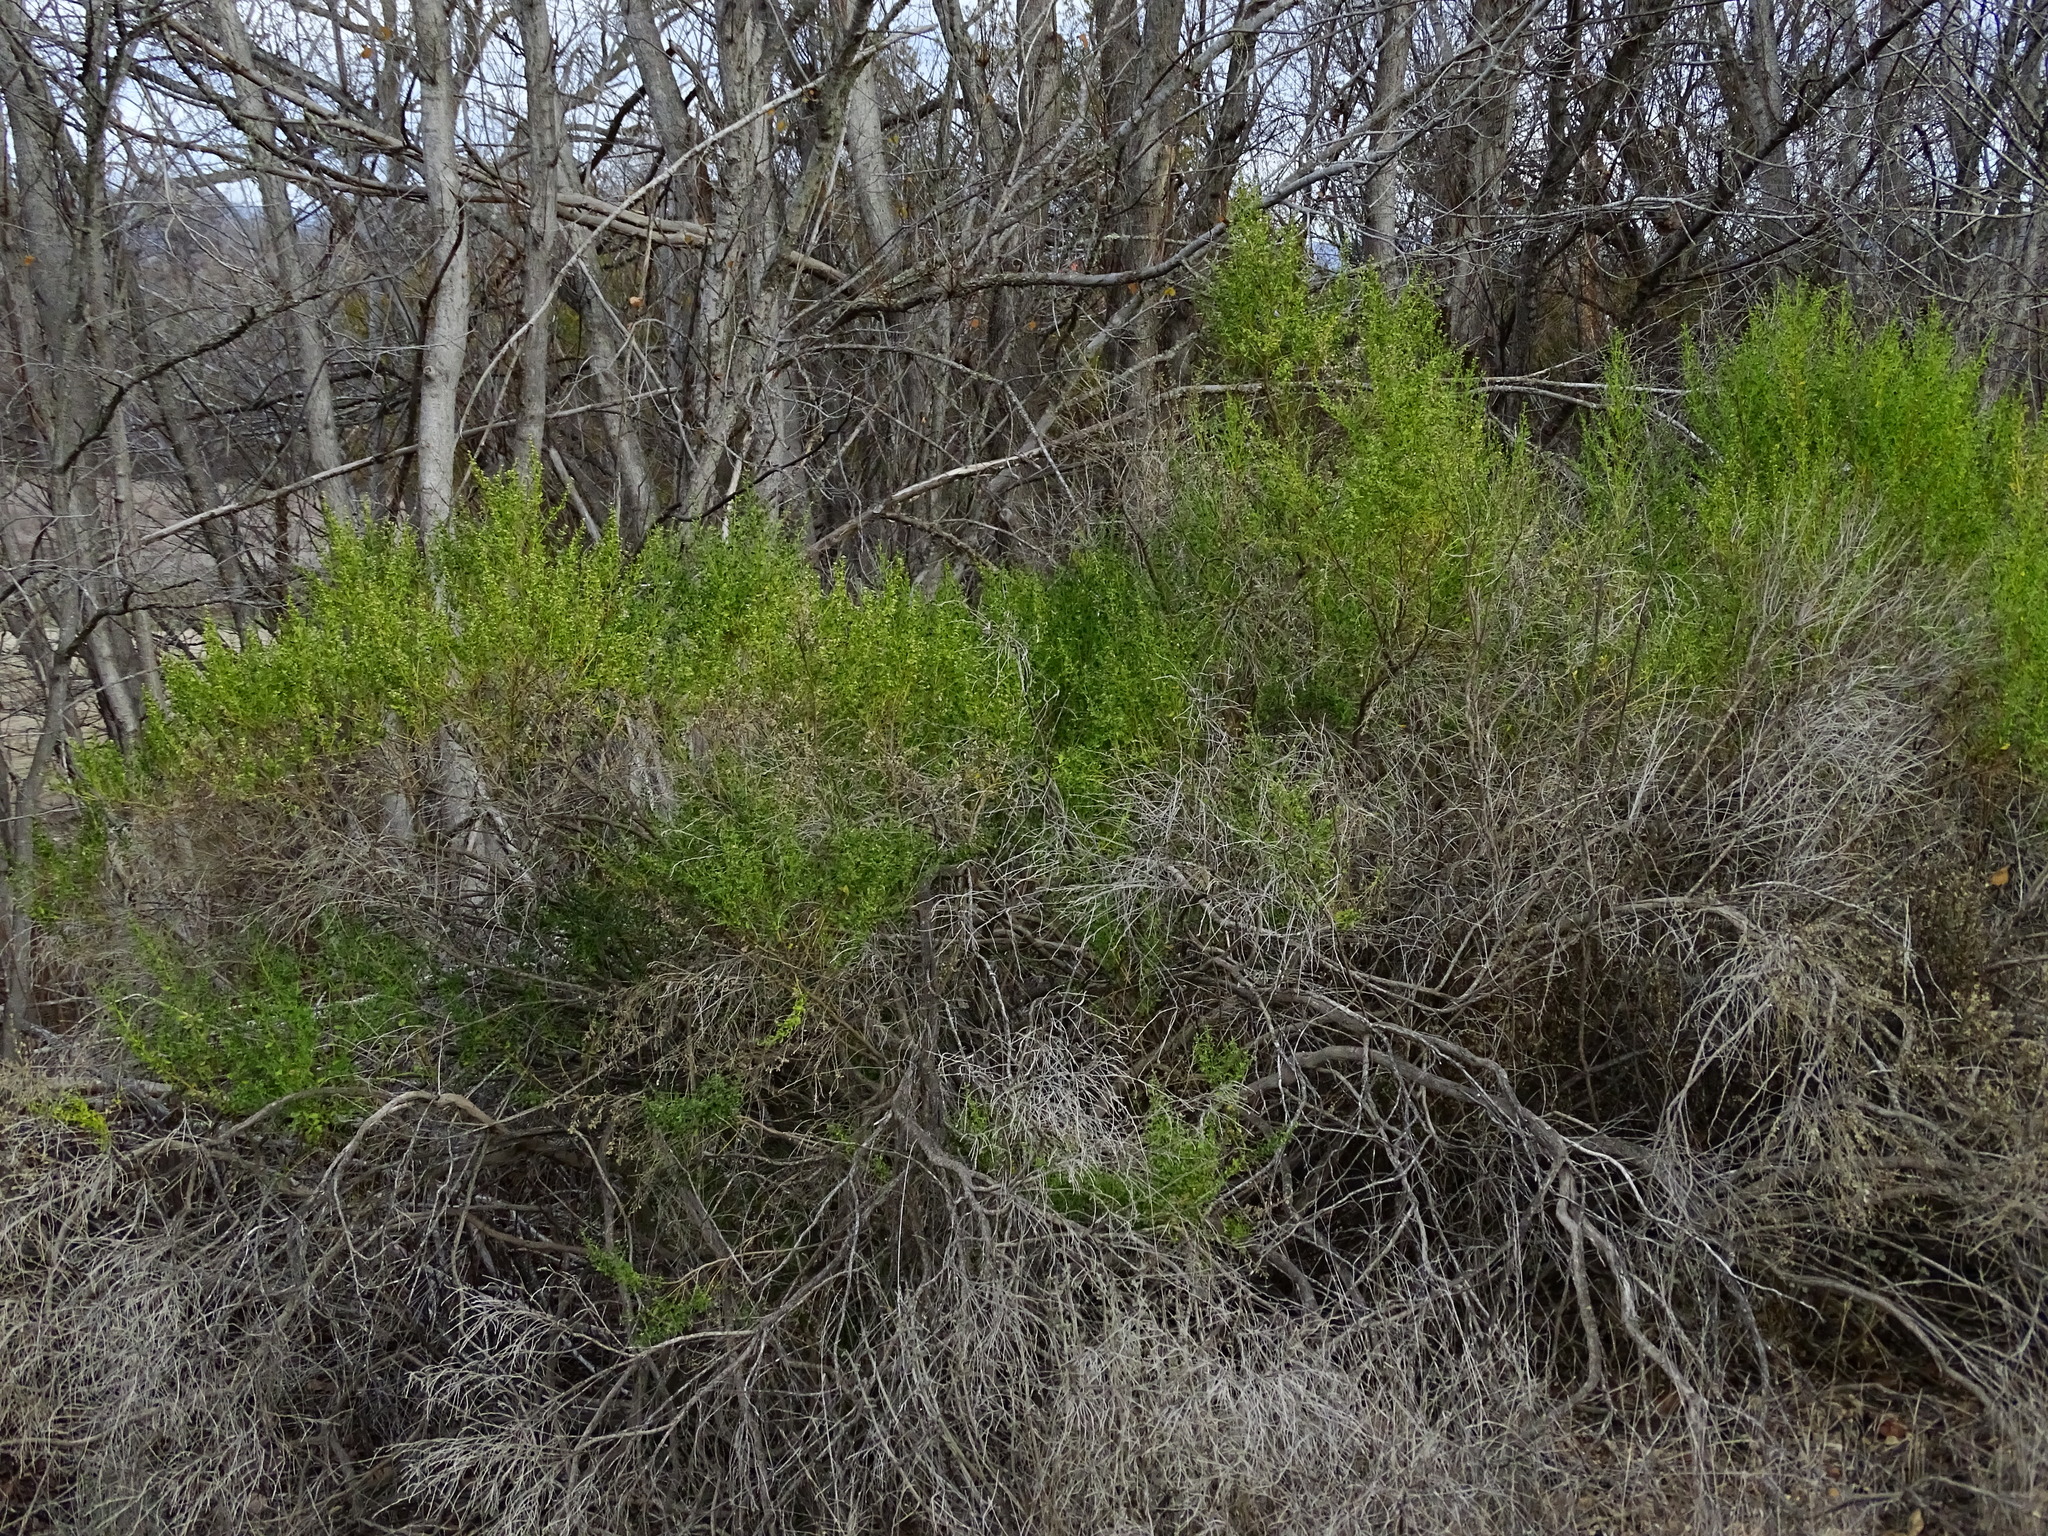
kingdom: Plantae
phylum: Tracheophyta
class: Magnoliopsida
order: Asterales
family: Asteraceae
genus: Baccharis
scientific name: Baccharis pilularis
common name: Coyotebrush
